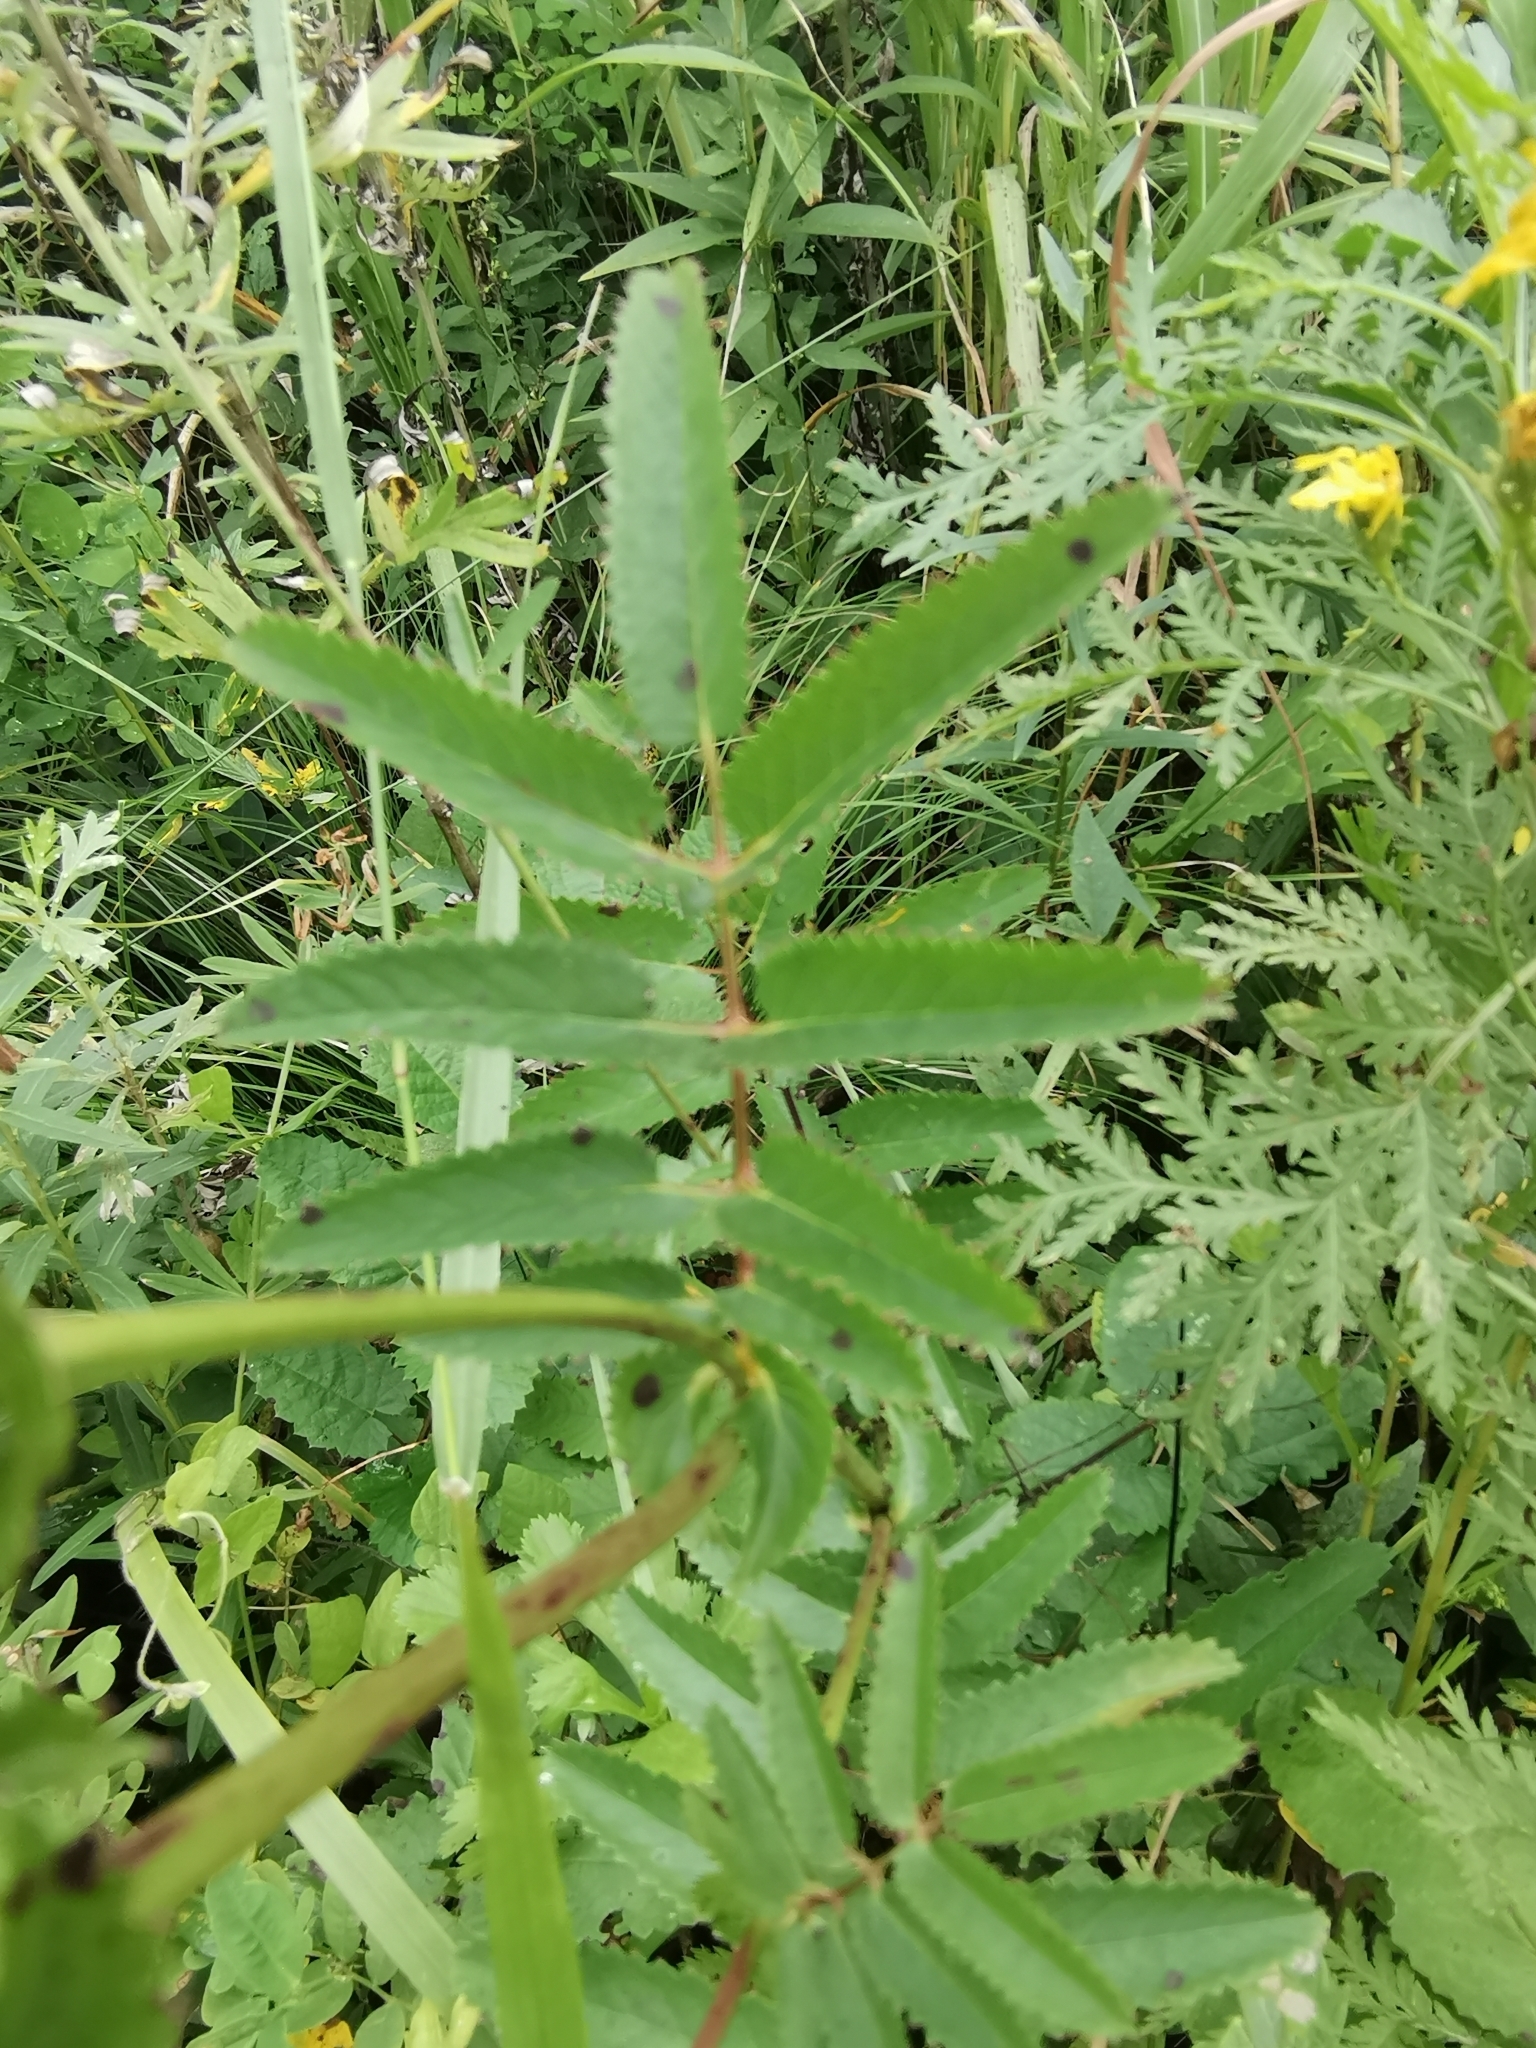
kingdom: Plantae
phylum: Tracheophyta
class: Magnoliopsida
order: Rosales
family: Rosaceae
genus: Sanguisorba
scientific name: Sanguisorba officinalis
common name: Great burnet
